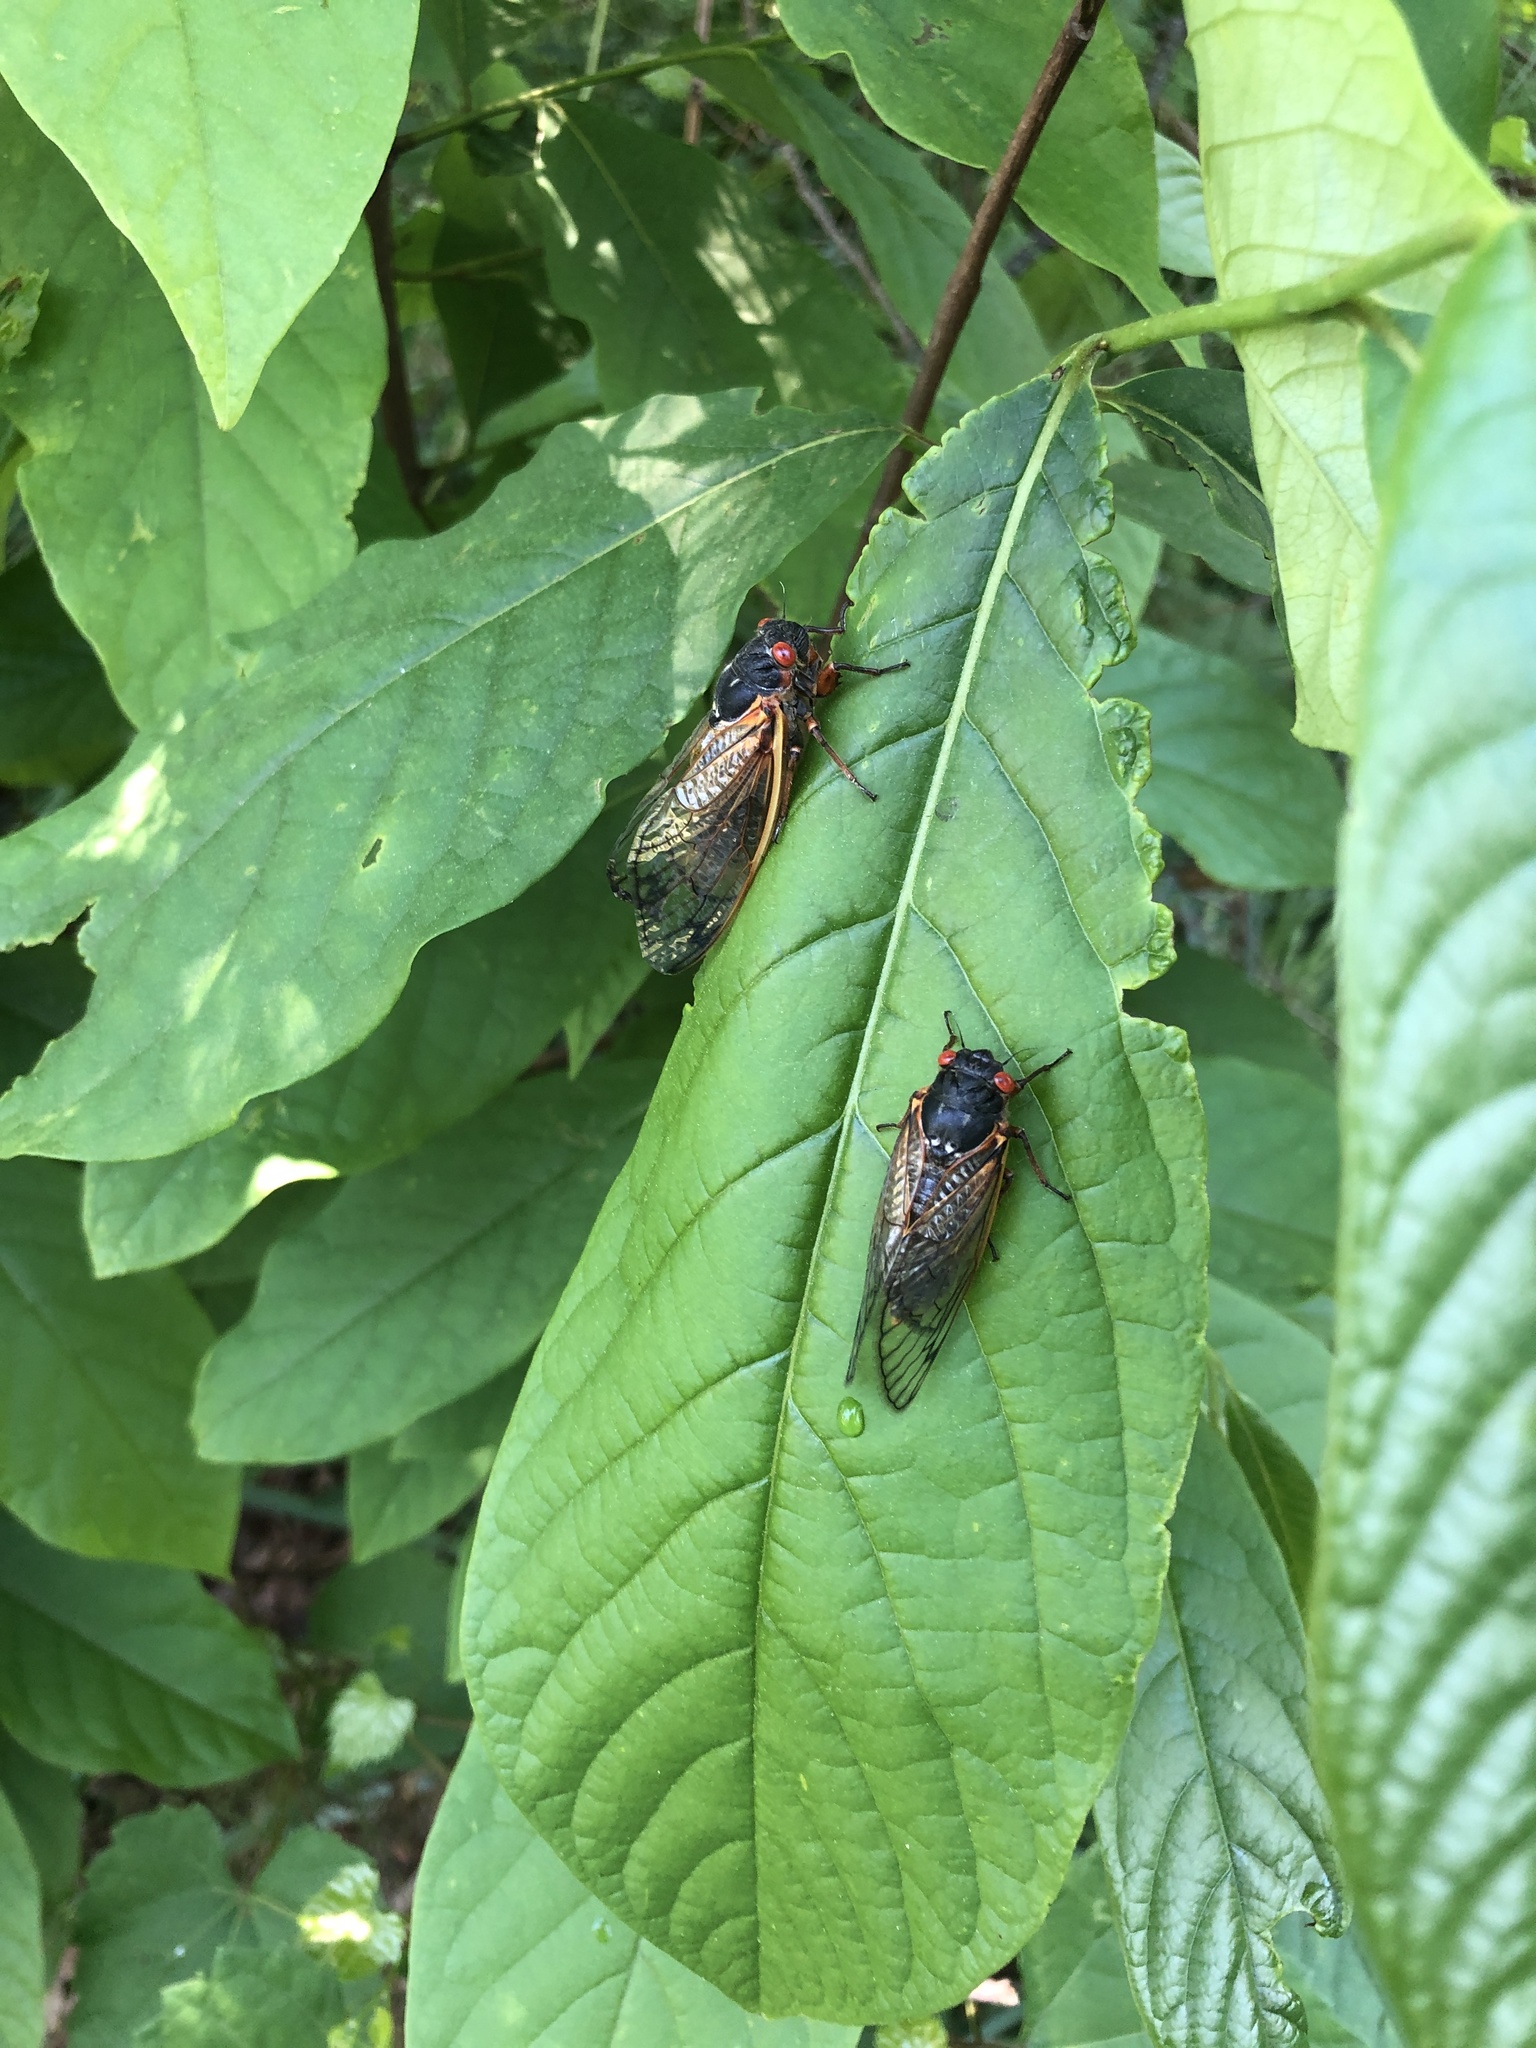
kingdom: Animalia
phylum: Arthropoda
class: Insecta
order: Hemiptera
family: Cicadidae
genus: Magicicada
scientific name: Magicicada septendecim
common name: Periodical cicada
